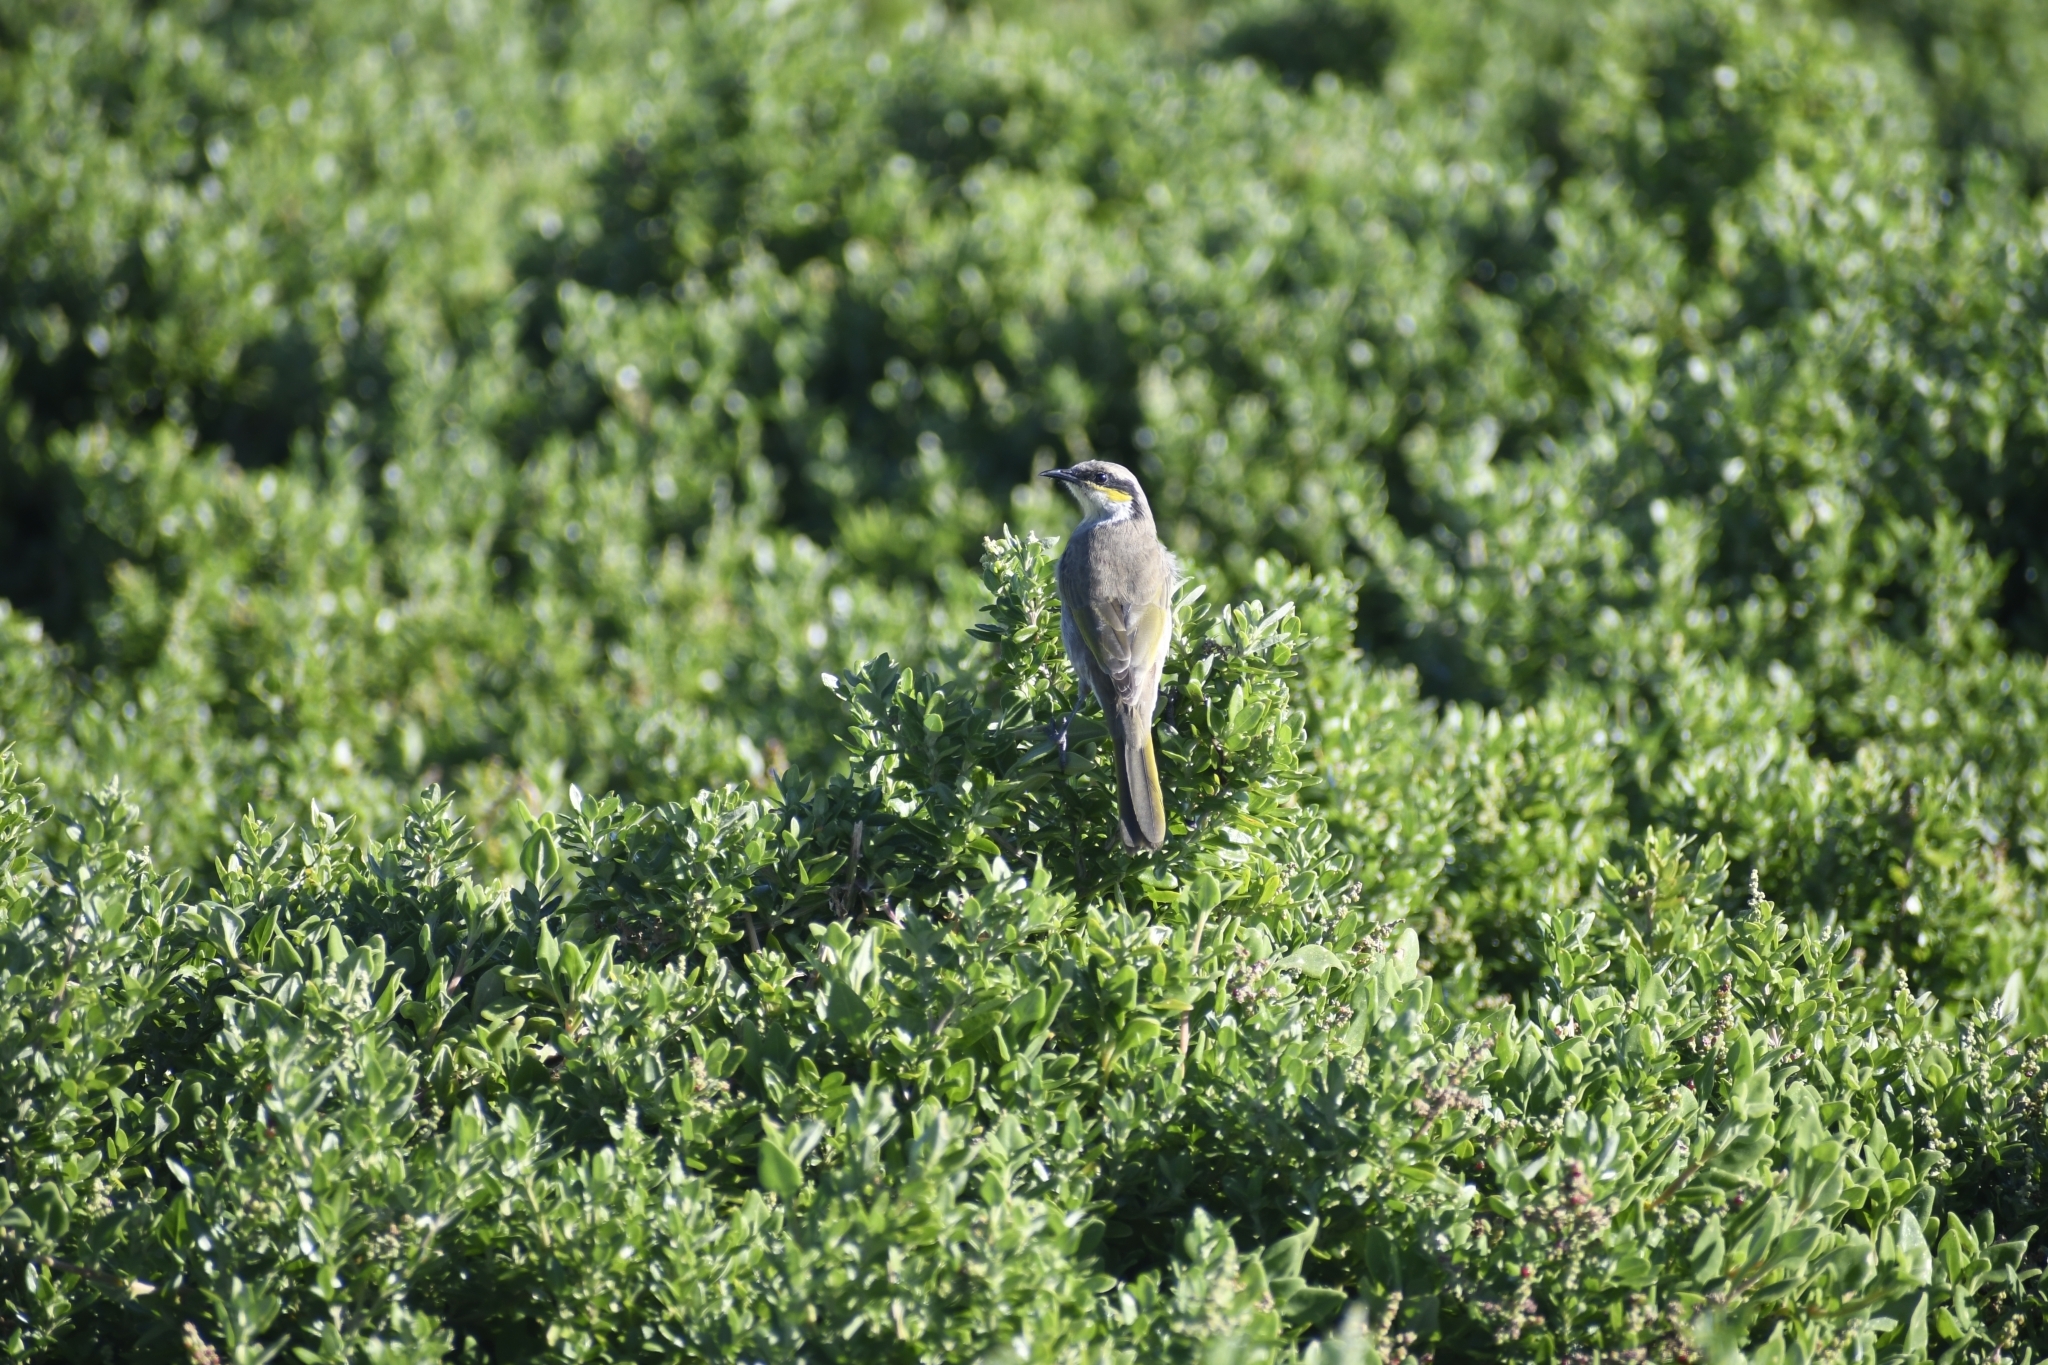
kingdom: Animalia
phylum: Chordata
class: Aves
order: Passeriformes
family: Meliphagidae
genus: Gavicalis
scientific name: Gavicalis virescens
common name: Singing honeyeater
